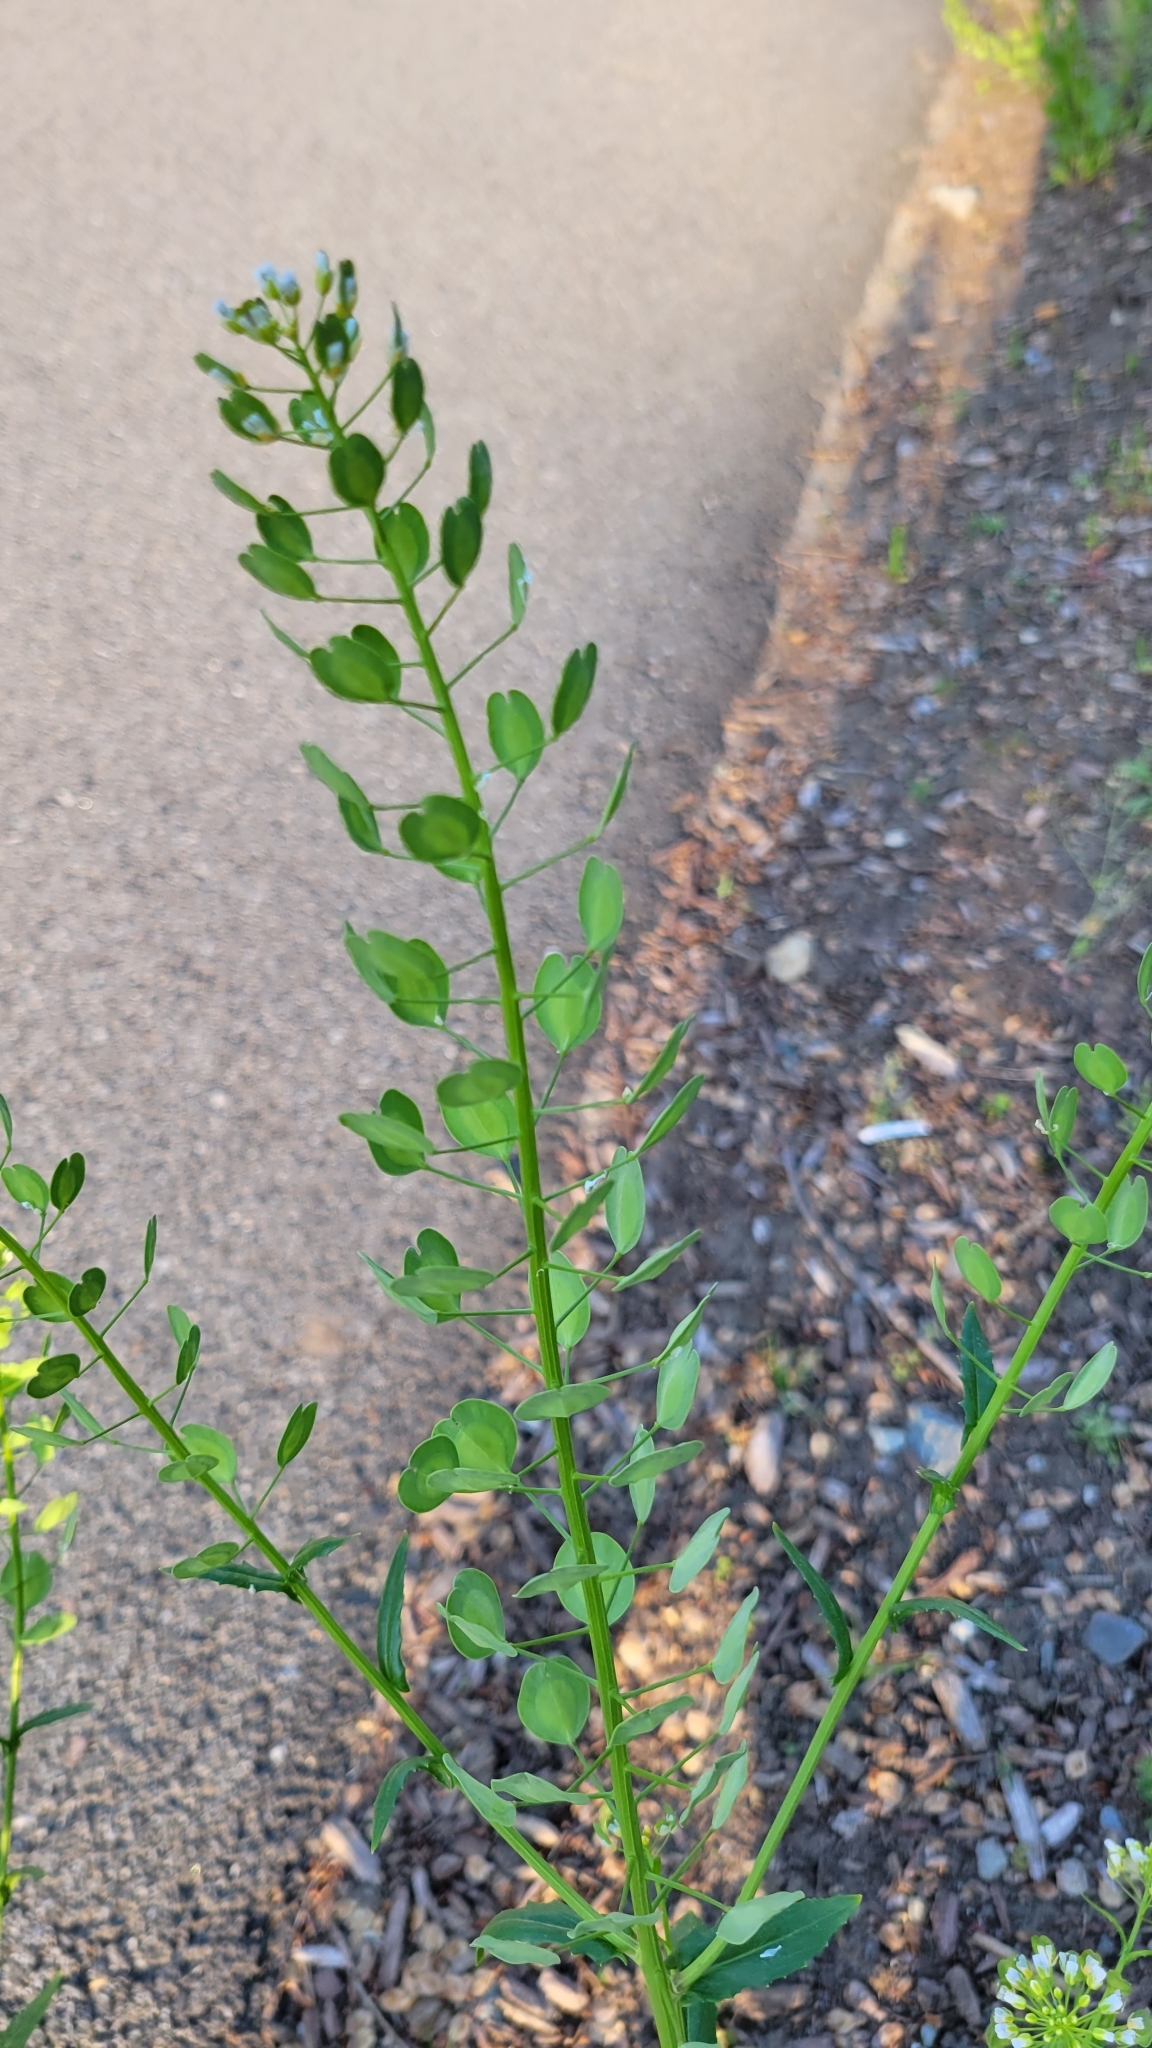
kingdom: Plantae
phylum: Tracheophyta
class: Magnoliopsida
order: Brassicales
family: Brassicaceae
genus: Thlaspi
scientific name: Thlaspi arvense
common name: Field pennycress
